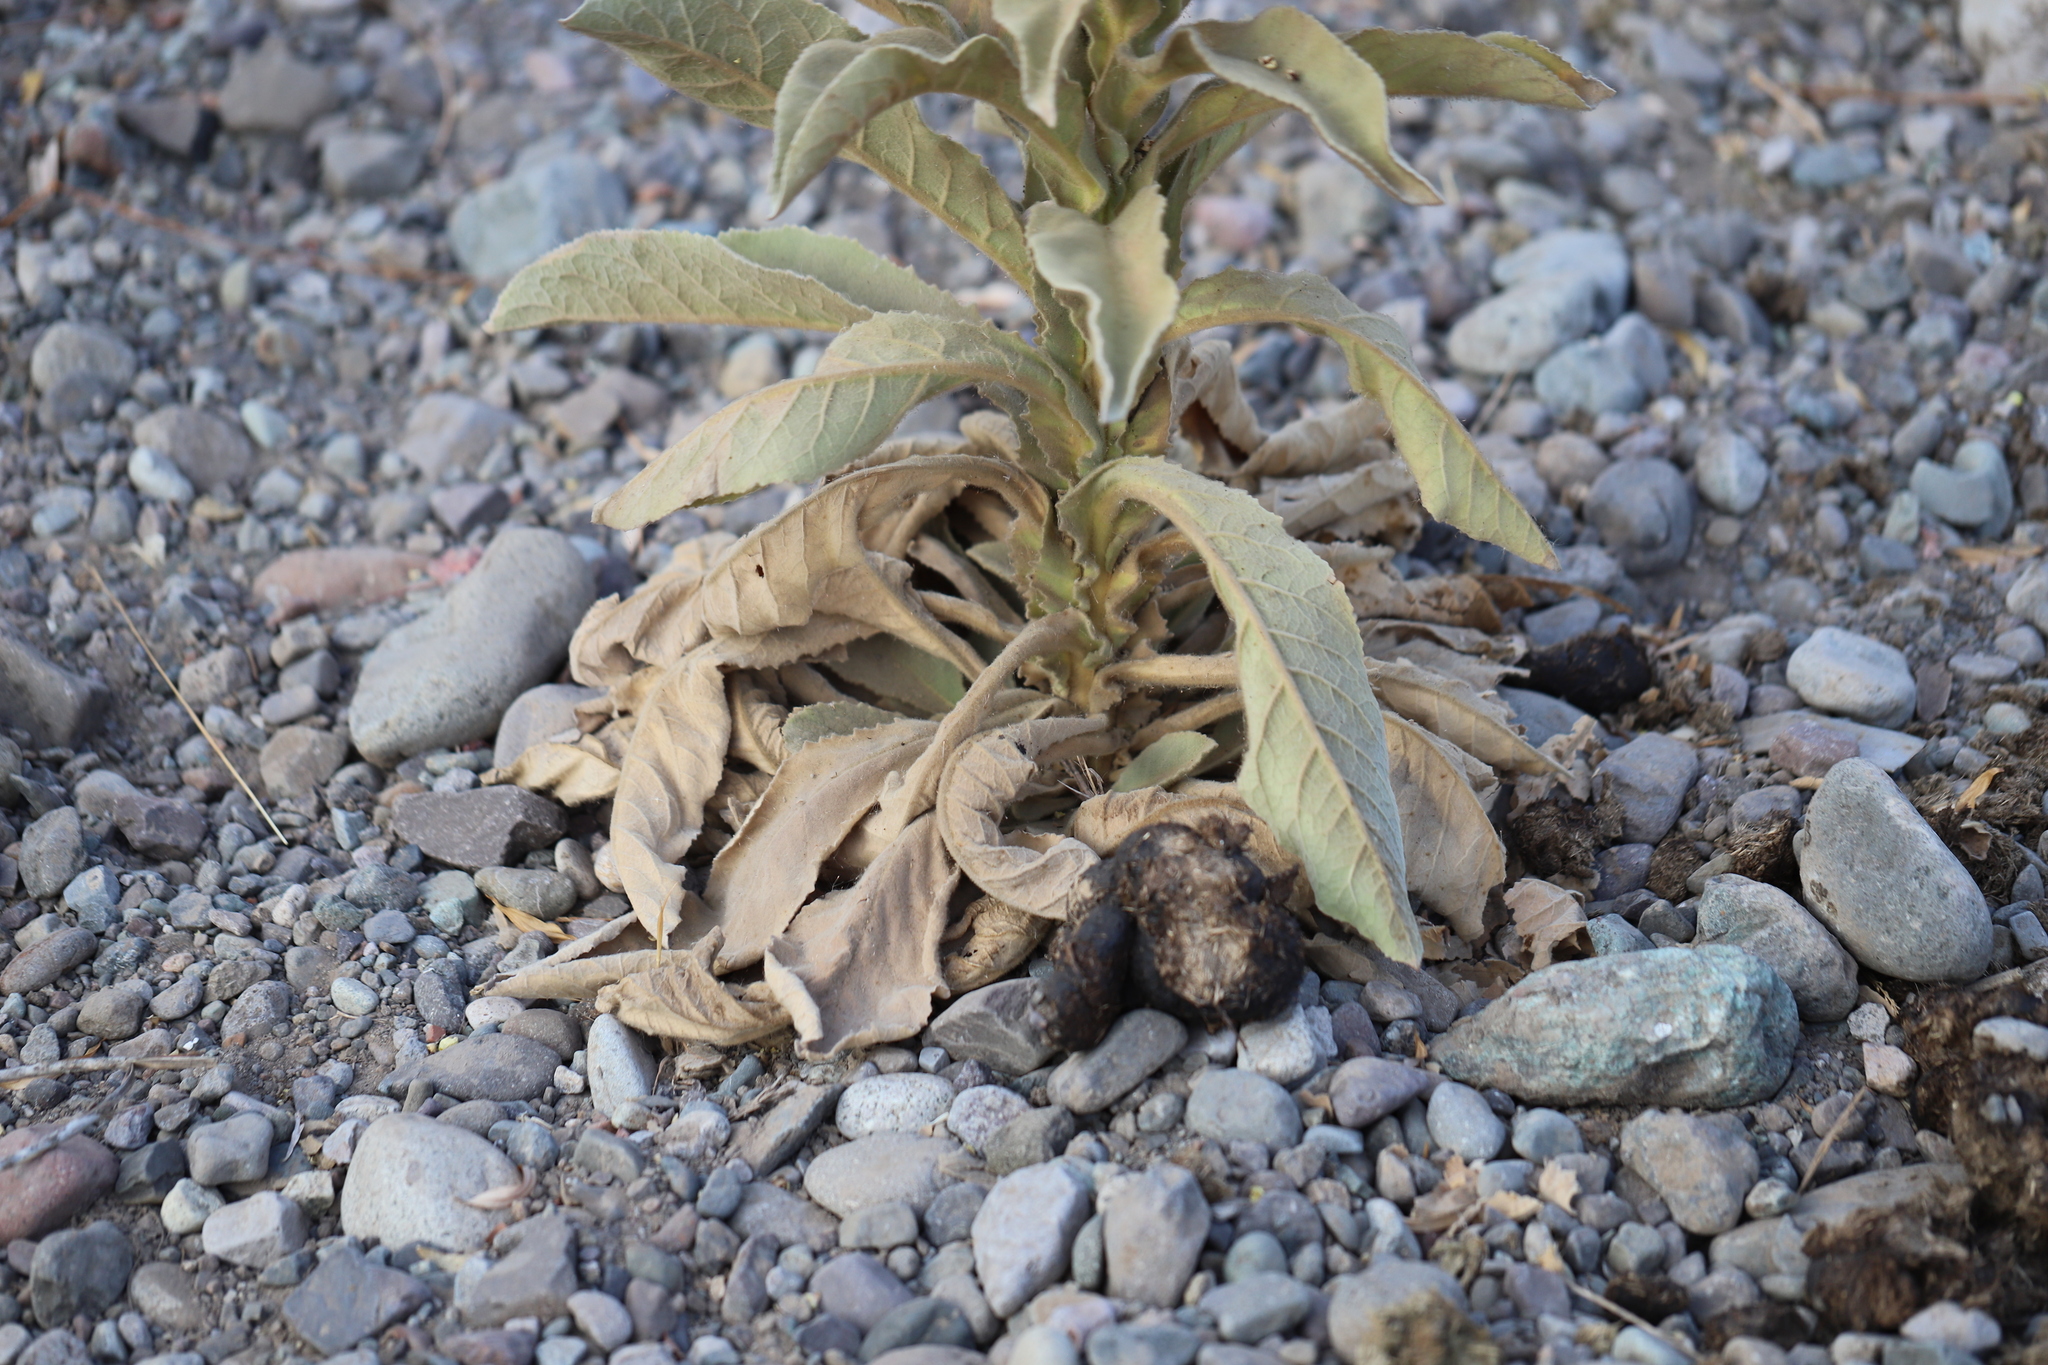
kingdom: Plantae
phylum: Tracheophyta
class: Magnoliopsida
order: Lamiales
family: Scrophulariaceae
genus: Verbascum
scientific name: Verbascum thapsus
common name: Common mullein
